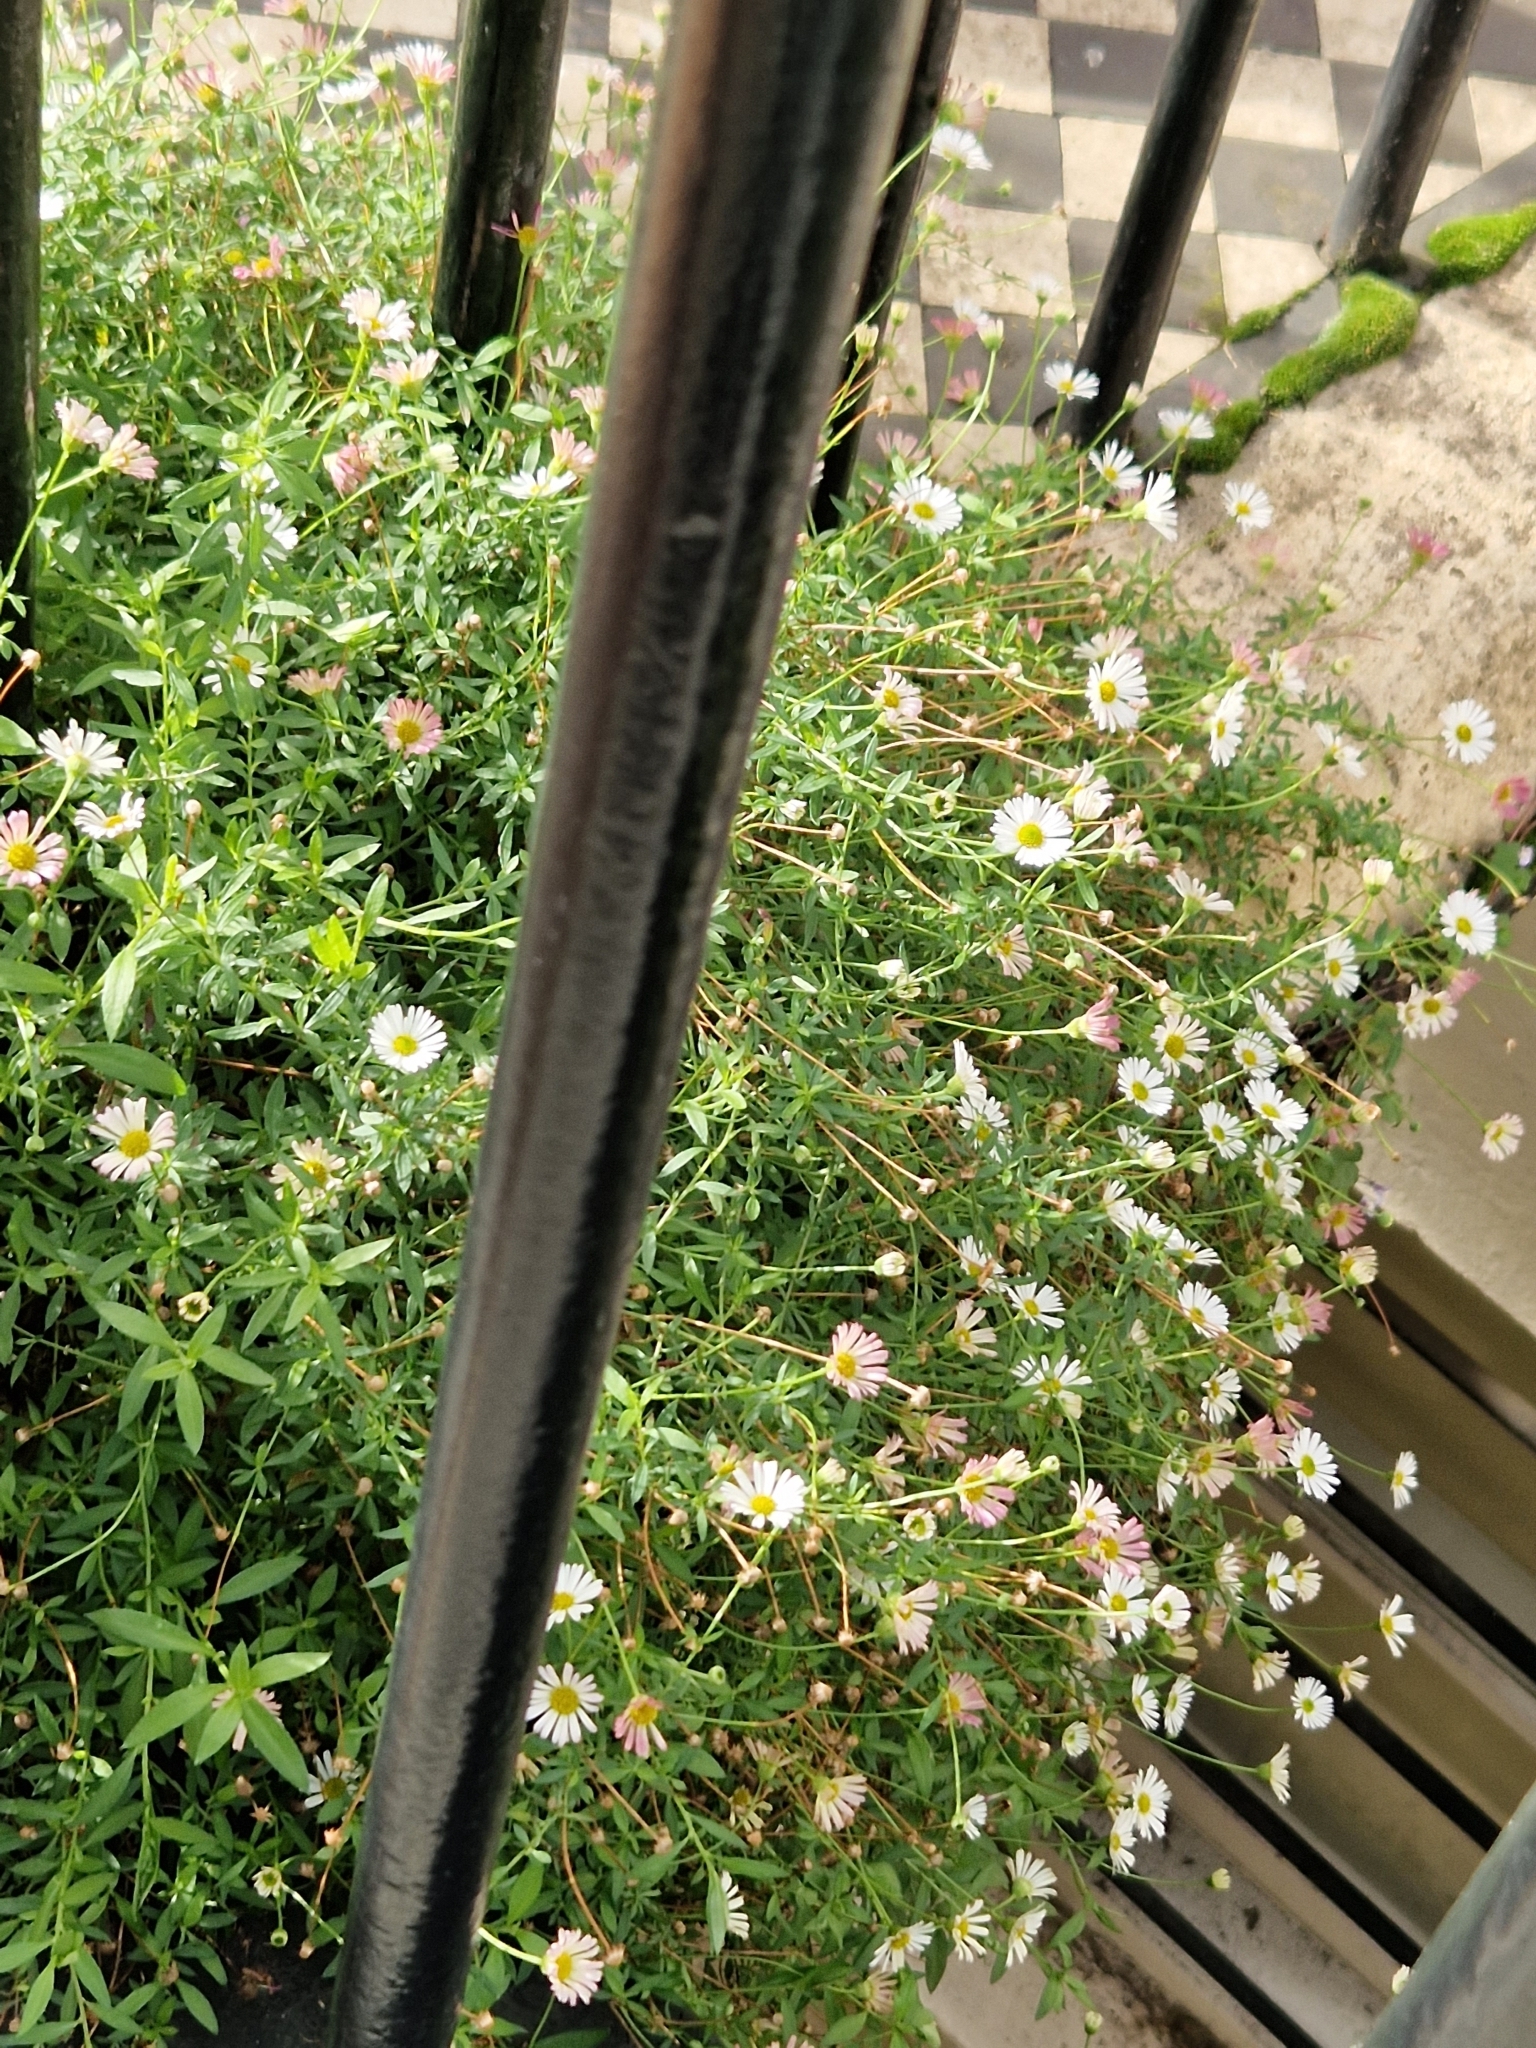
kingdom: Plantae
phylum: Tracheophyta
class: Magnoliopsida
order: Asterales
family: Asteraceae
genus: Erigeron
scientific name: Erigeron karvinskianus
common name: Mexican fleabane
